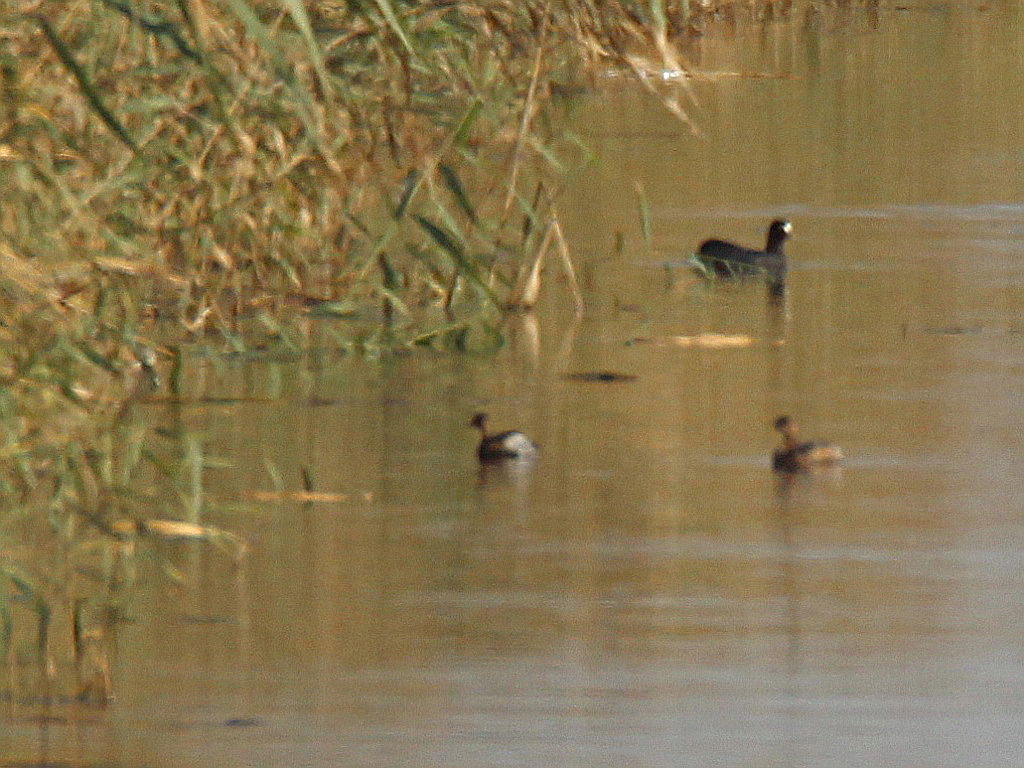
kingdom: Animalia
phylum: Chordata
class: Aves
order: Podicipediformes
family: Podicipedidae
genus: Tachybaptus
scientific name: Tachybaptus ruficollis
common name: Little grebe
